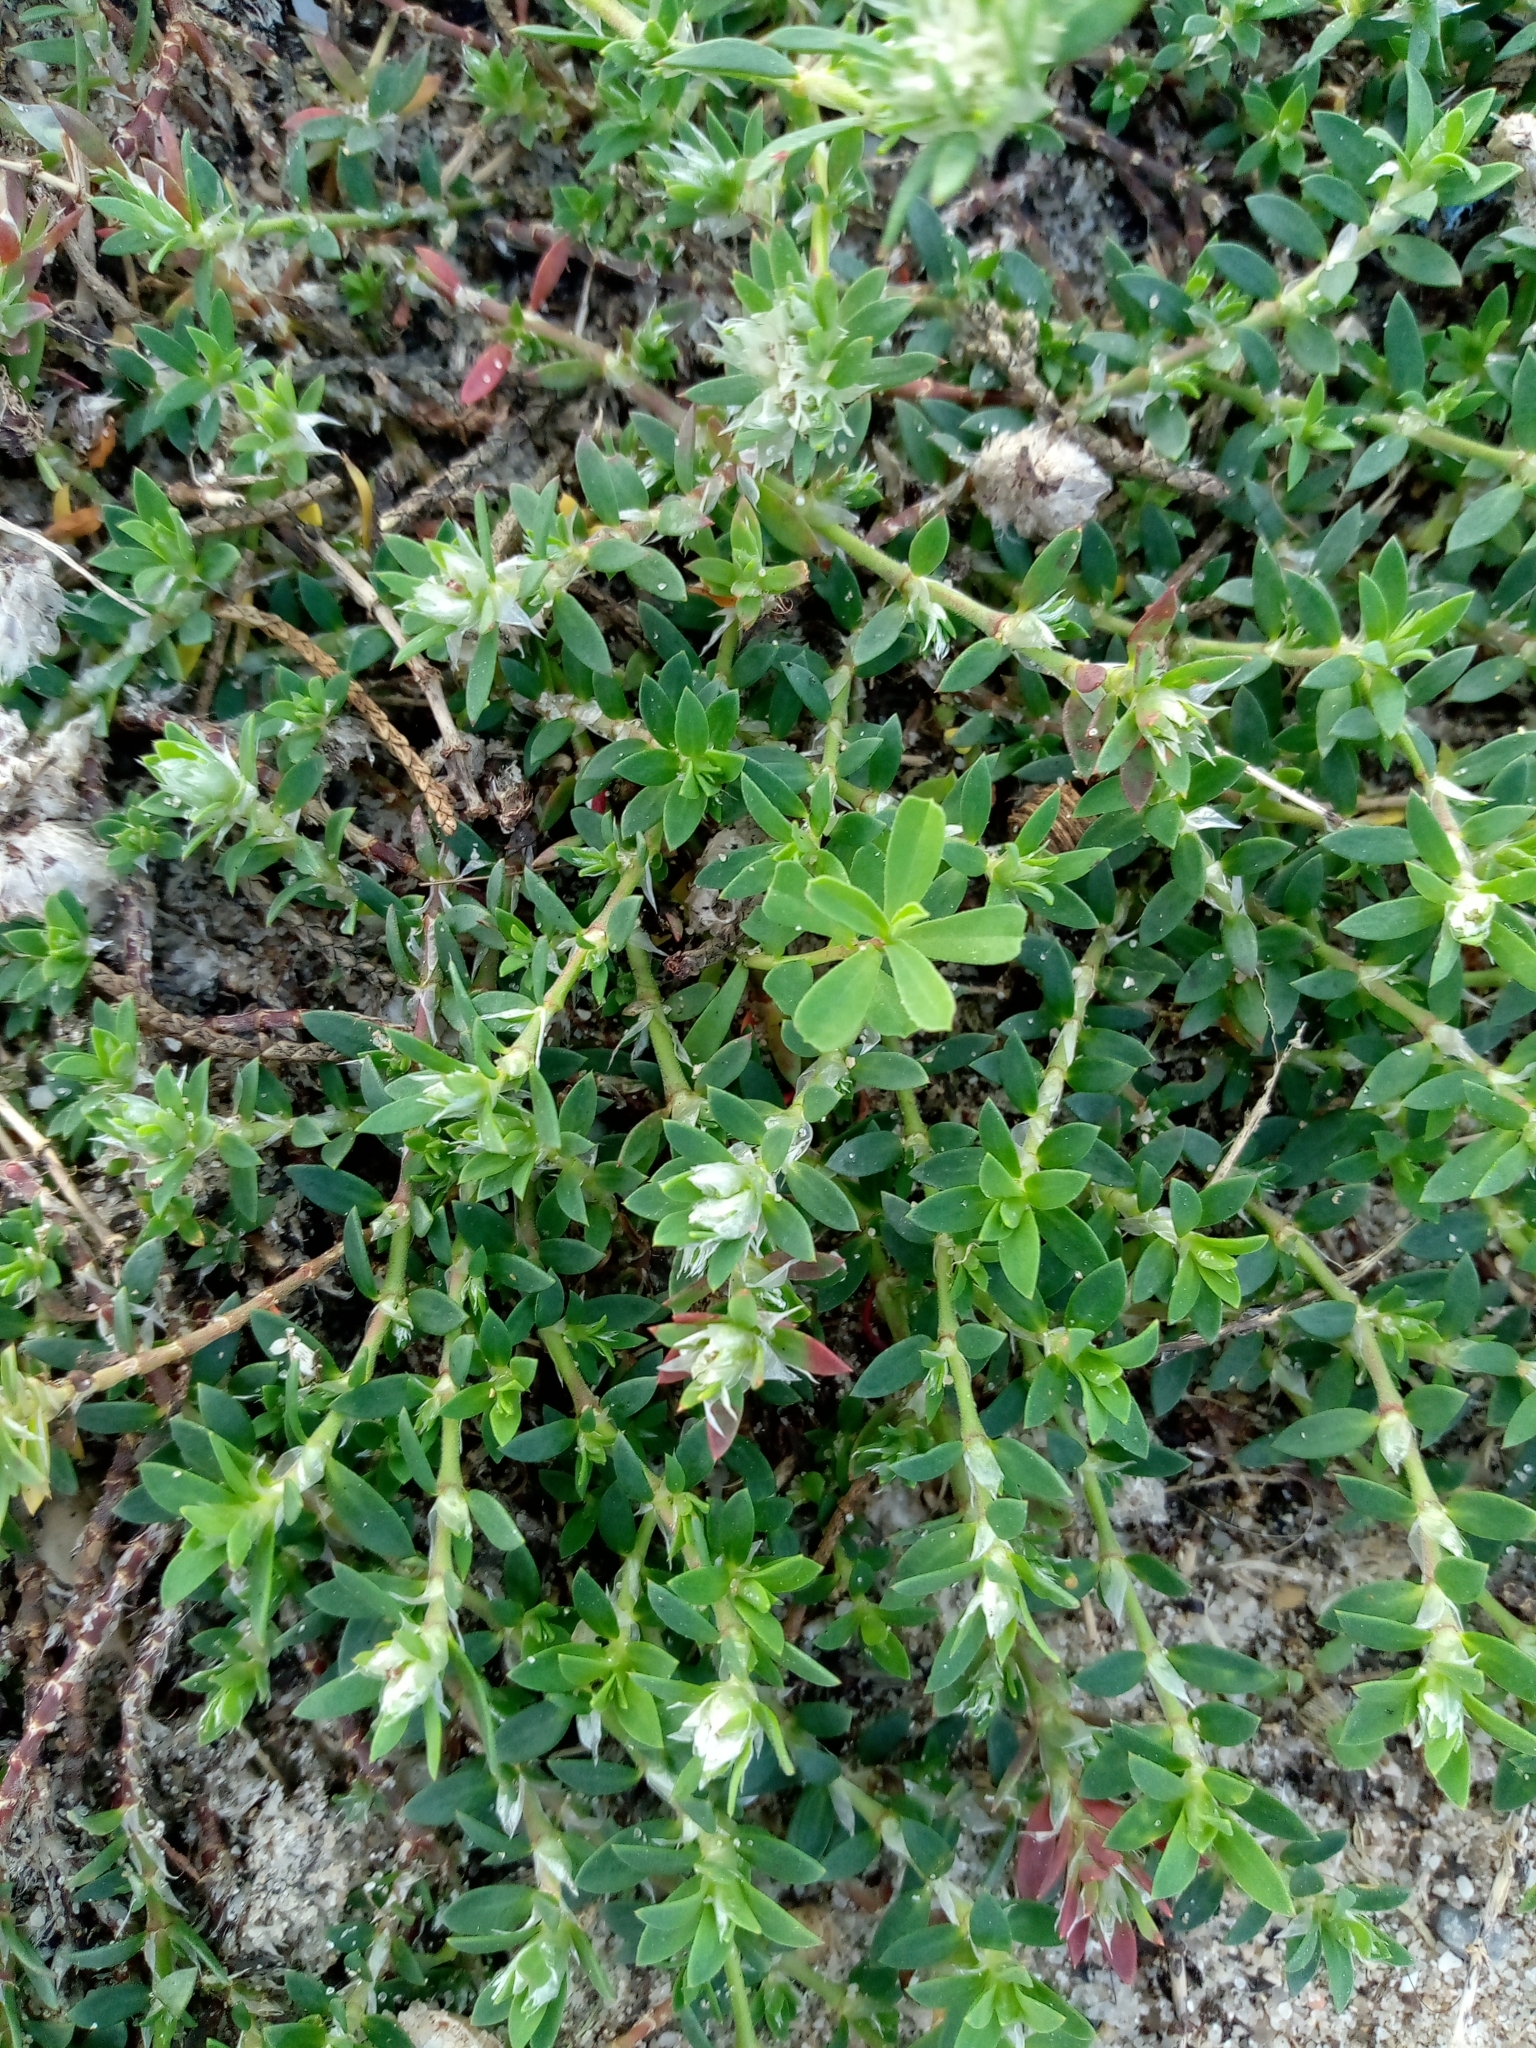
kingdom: Plantae
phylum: Tracheophyta
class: Magnoliopsida
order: Caryophyllales
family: Caryophyllaceae
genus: Paronychia
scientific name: Paronychia argentea
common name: Silver nailroot
